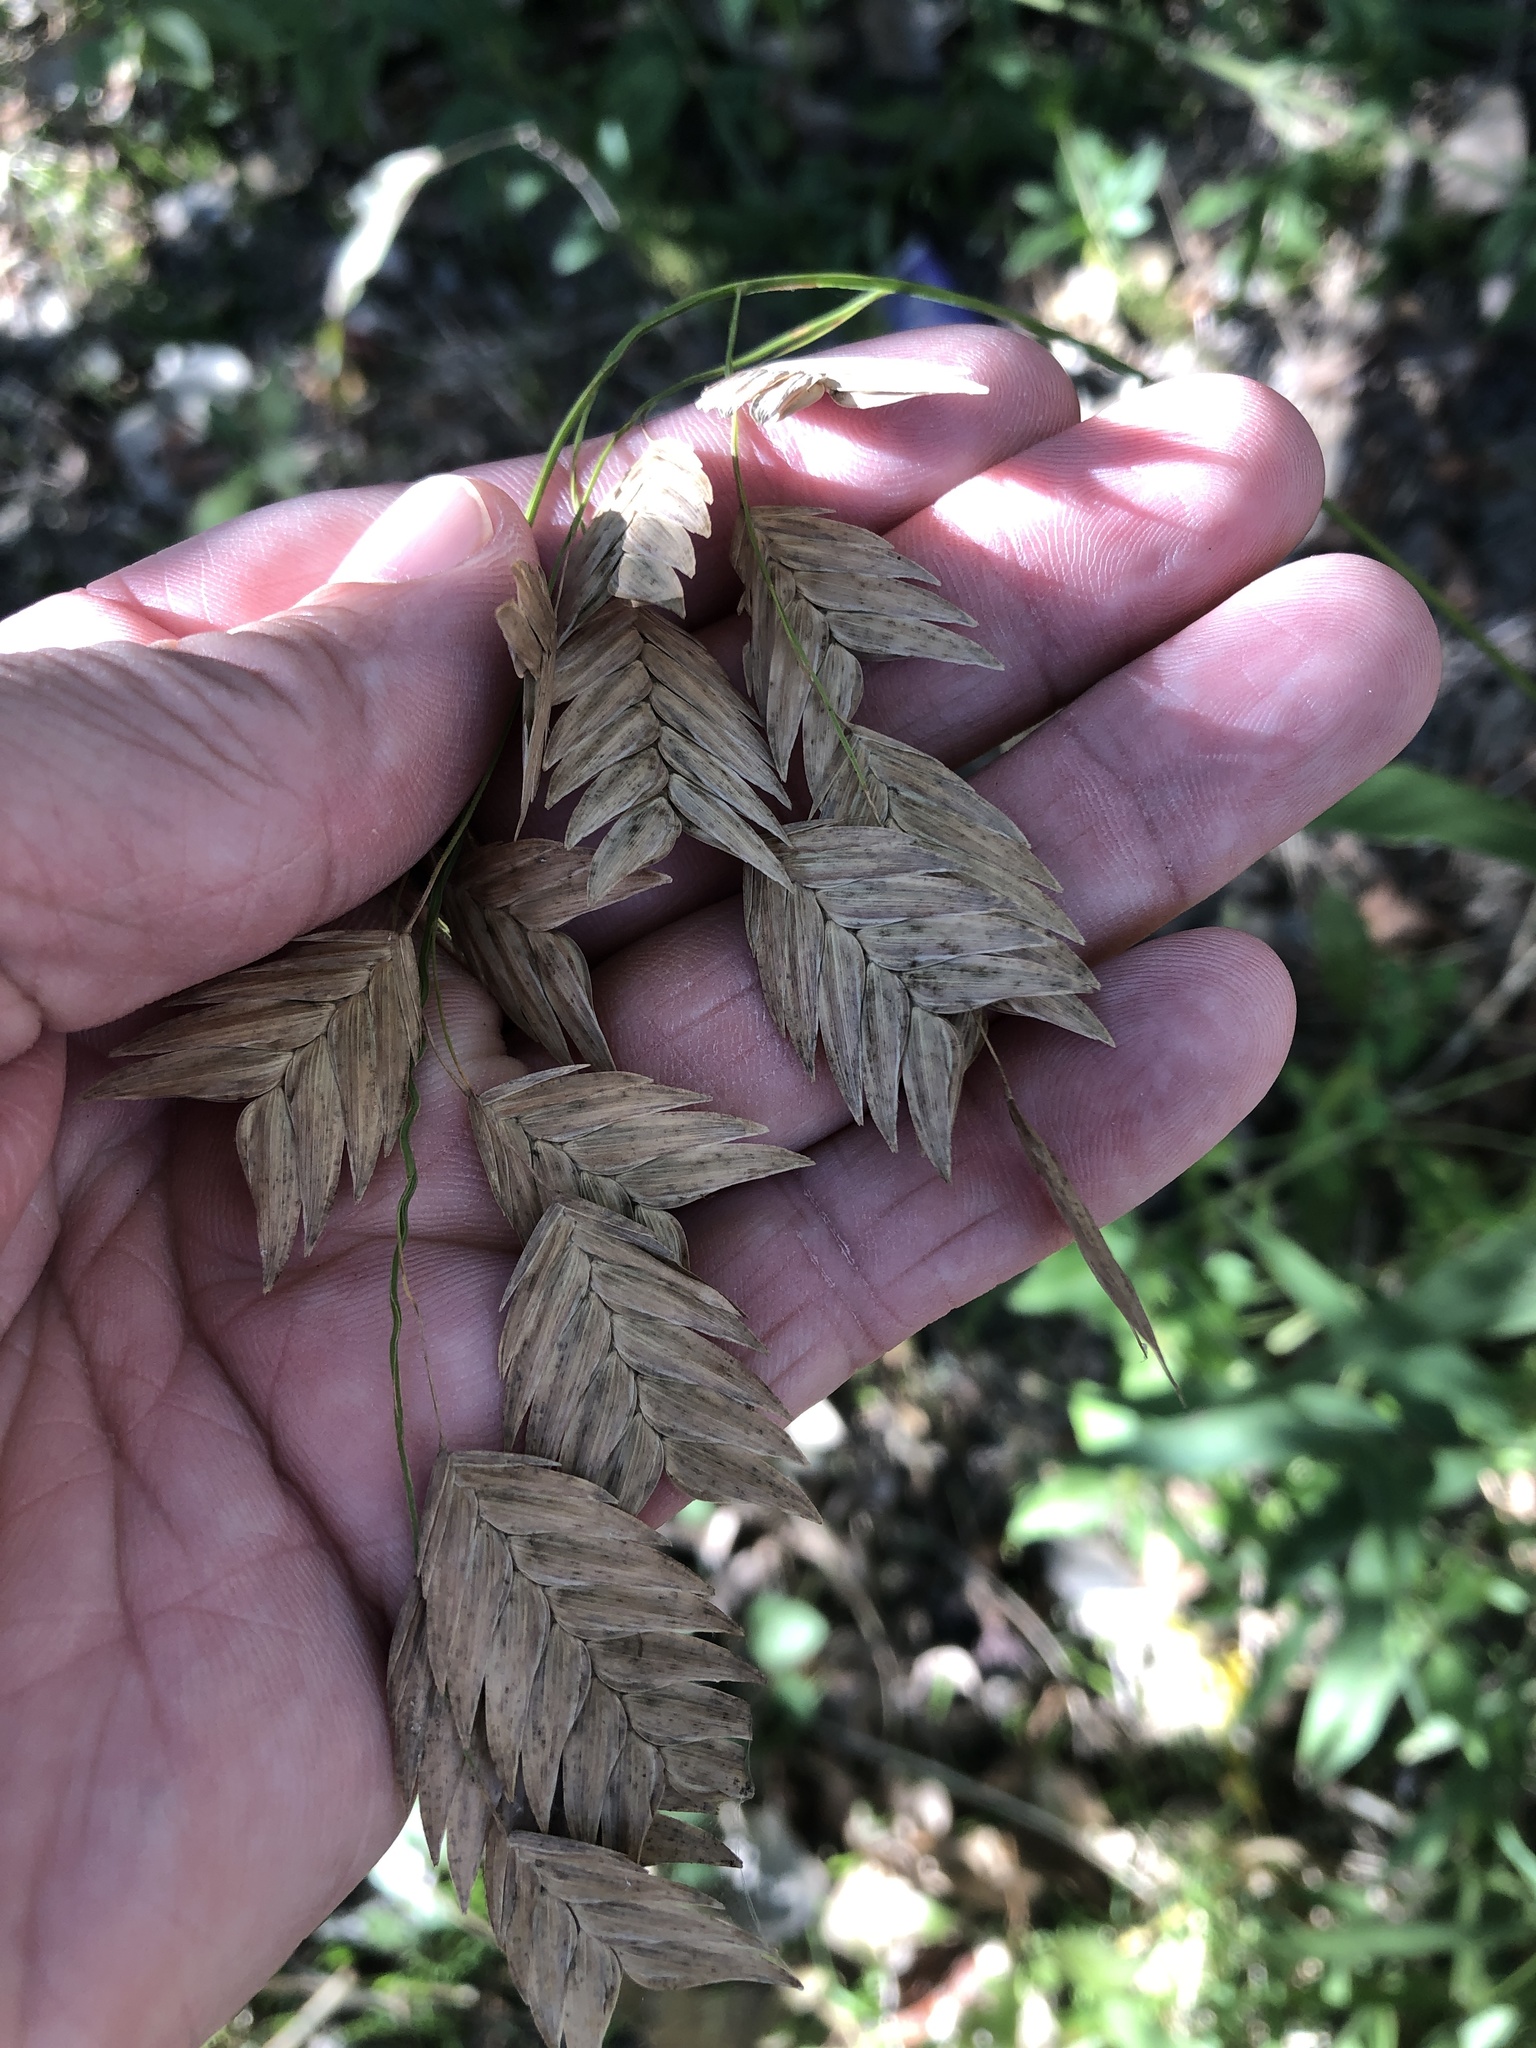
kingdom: Plantae
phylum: Tracheophyta
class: Liliopsida
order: Poales
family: Poaceae
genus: Chasmanthium
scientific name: Chasmanthium latifolium
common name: Broad-leaved chasmanthium
